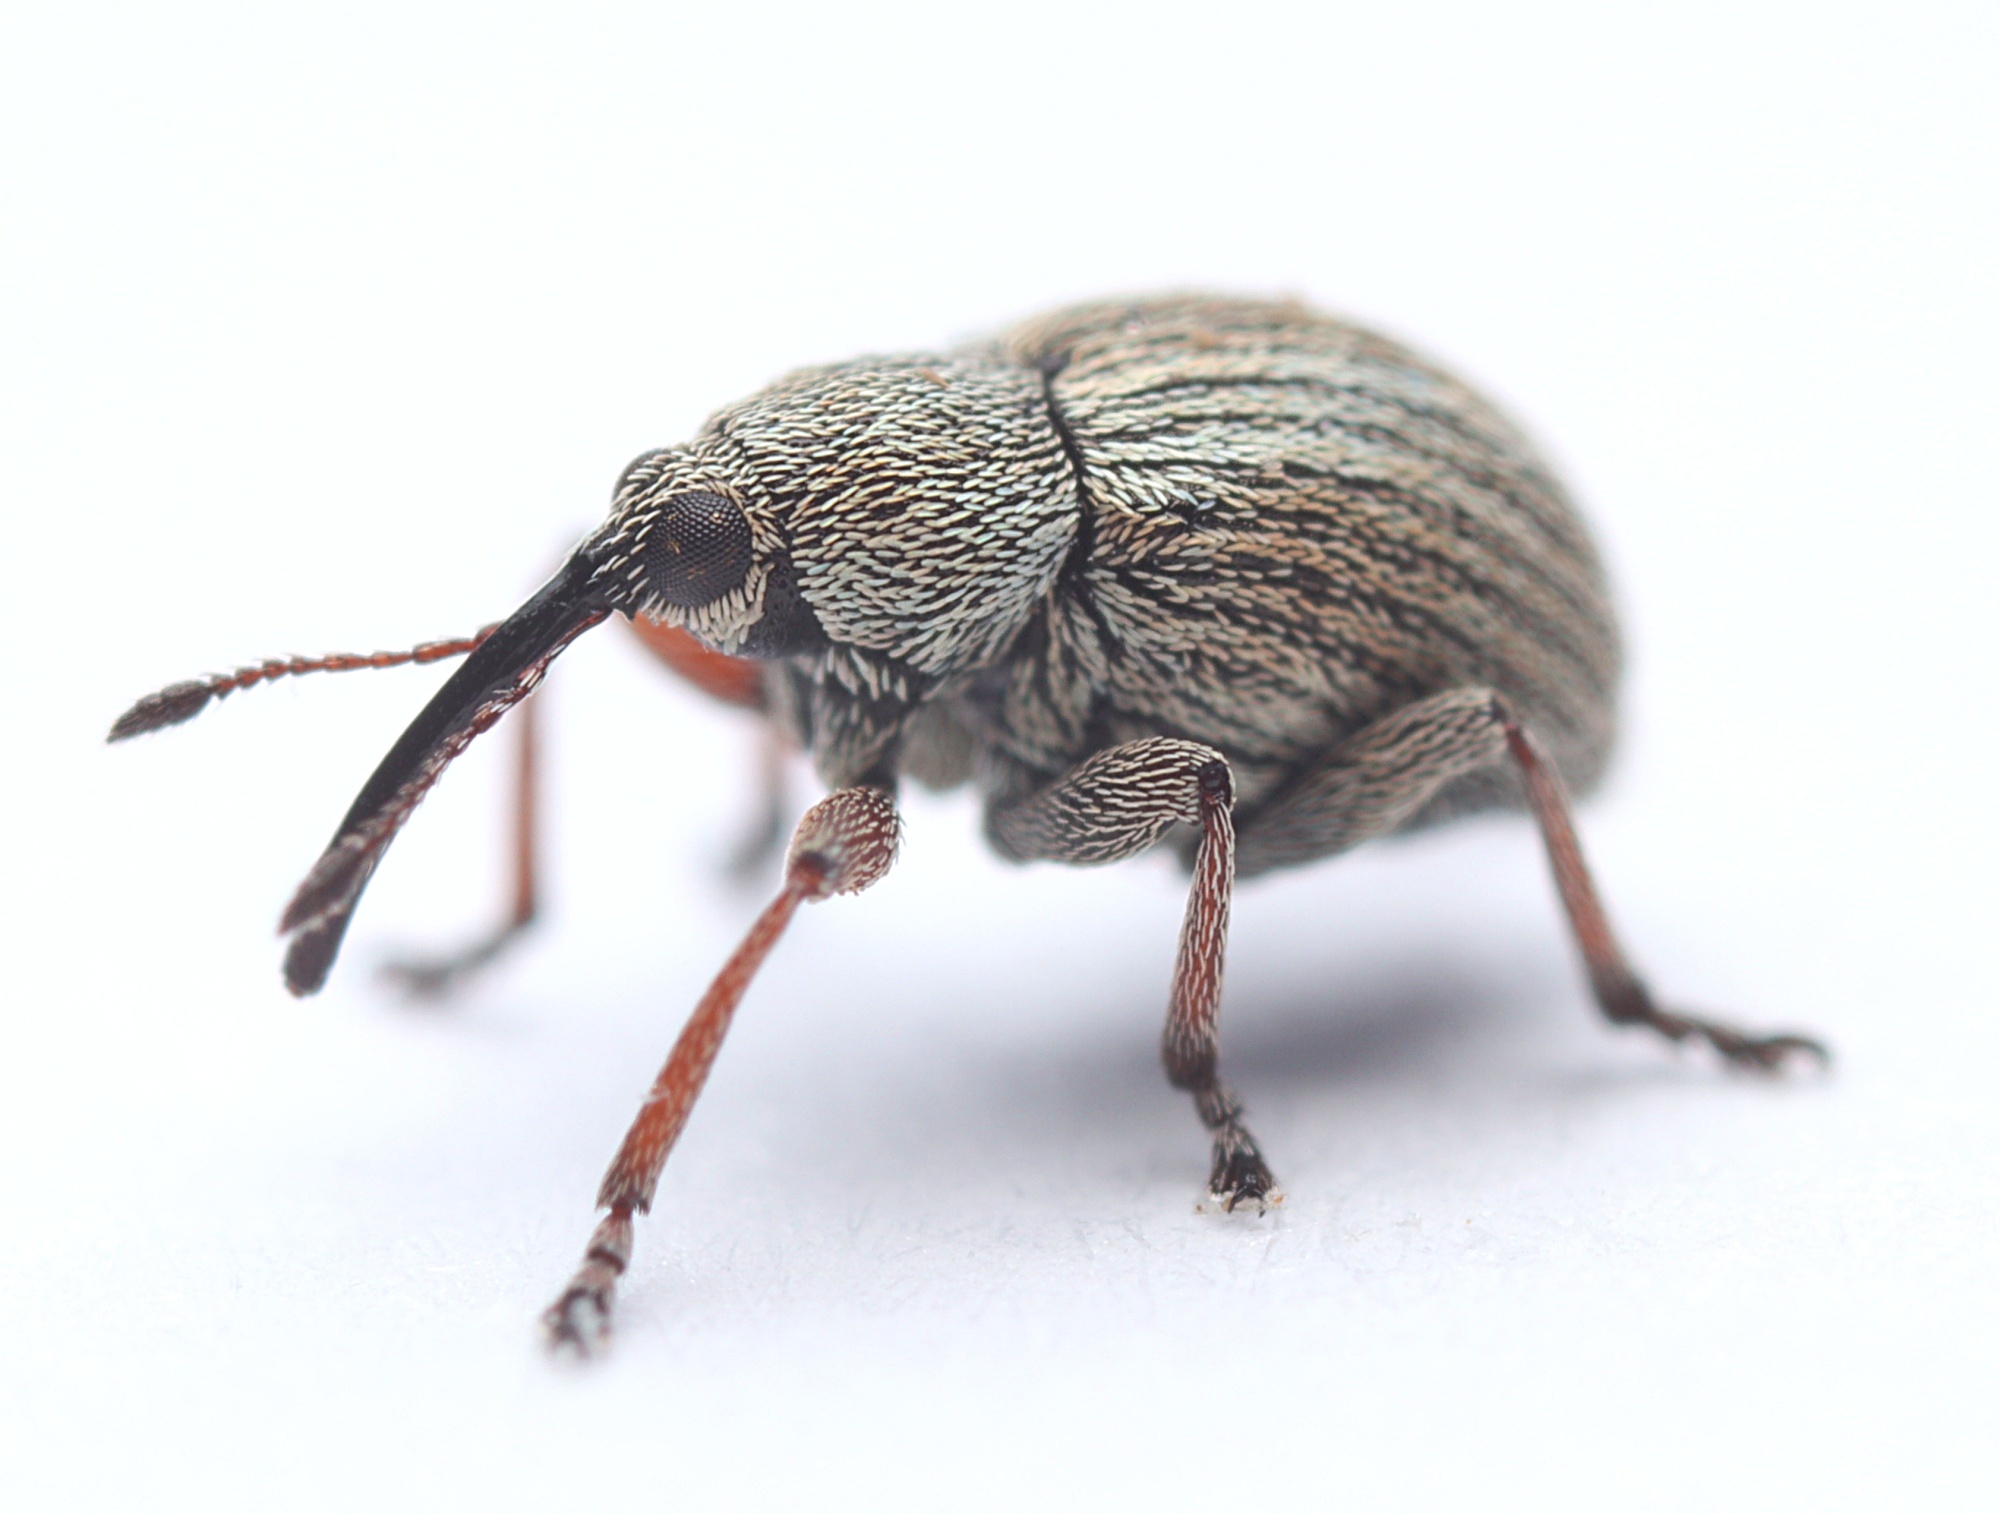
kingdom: Animalia
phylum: Arthropoda
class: Insecta
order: Coleoptera
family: Brentidae
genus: Exapion
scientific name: Exapion ulicis
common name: Gorse seed weevil
